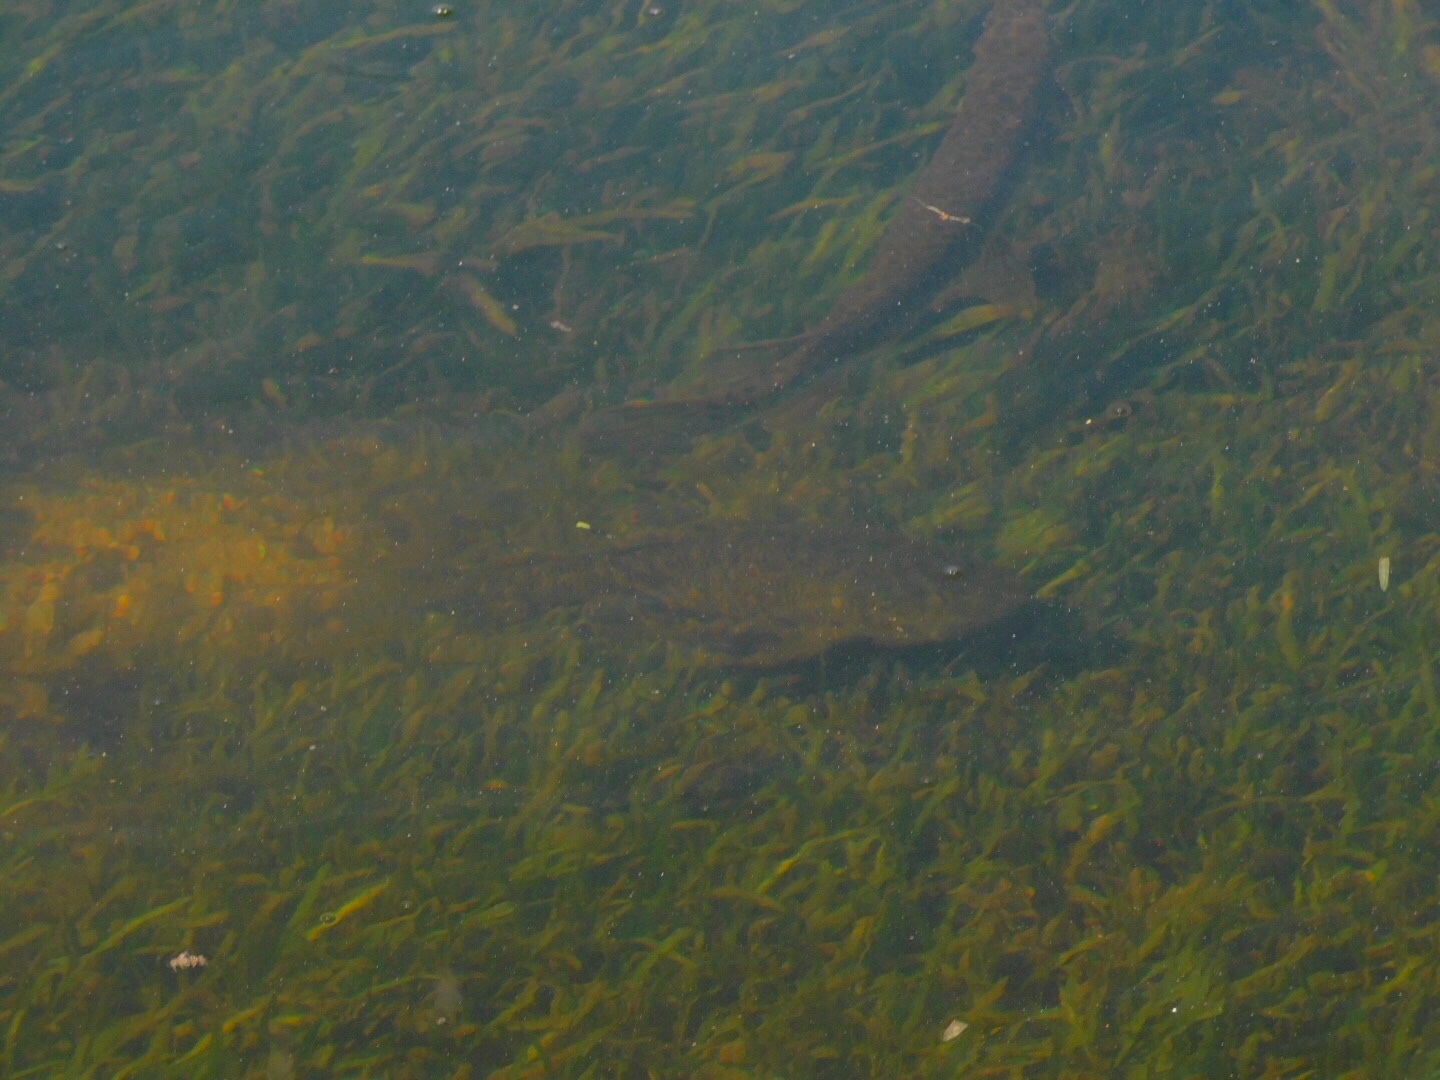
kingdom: Animalia
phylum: Chordata
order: Lepisosteiformes
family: Lepisosteidae
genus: Lepisosteus
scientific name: Lepisosteus platyrhincus
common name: Florida gar
